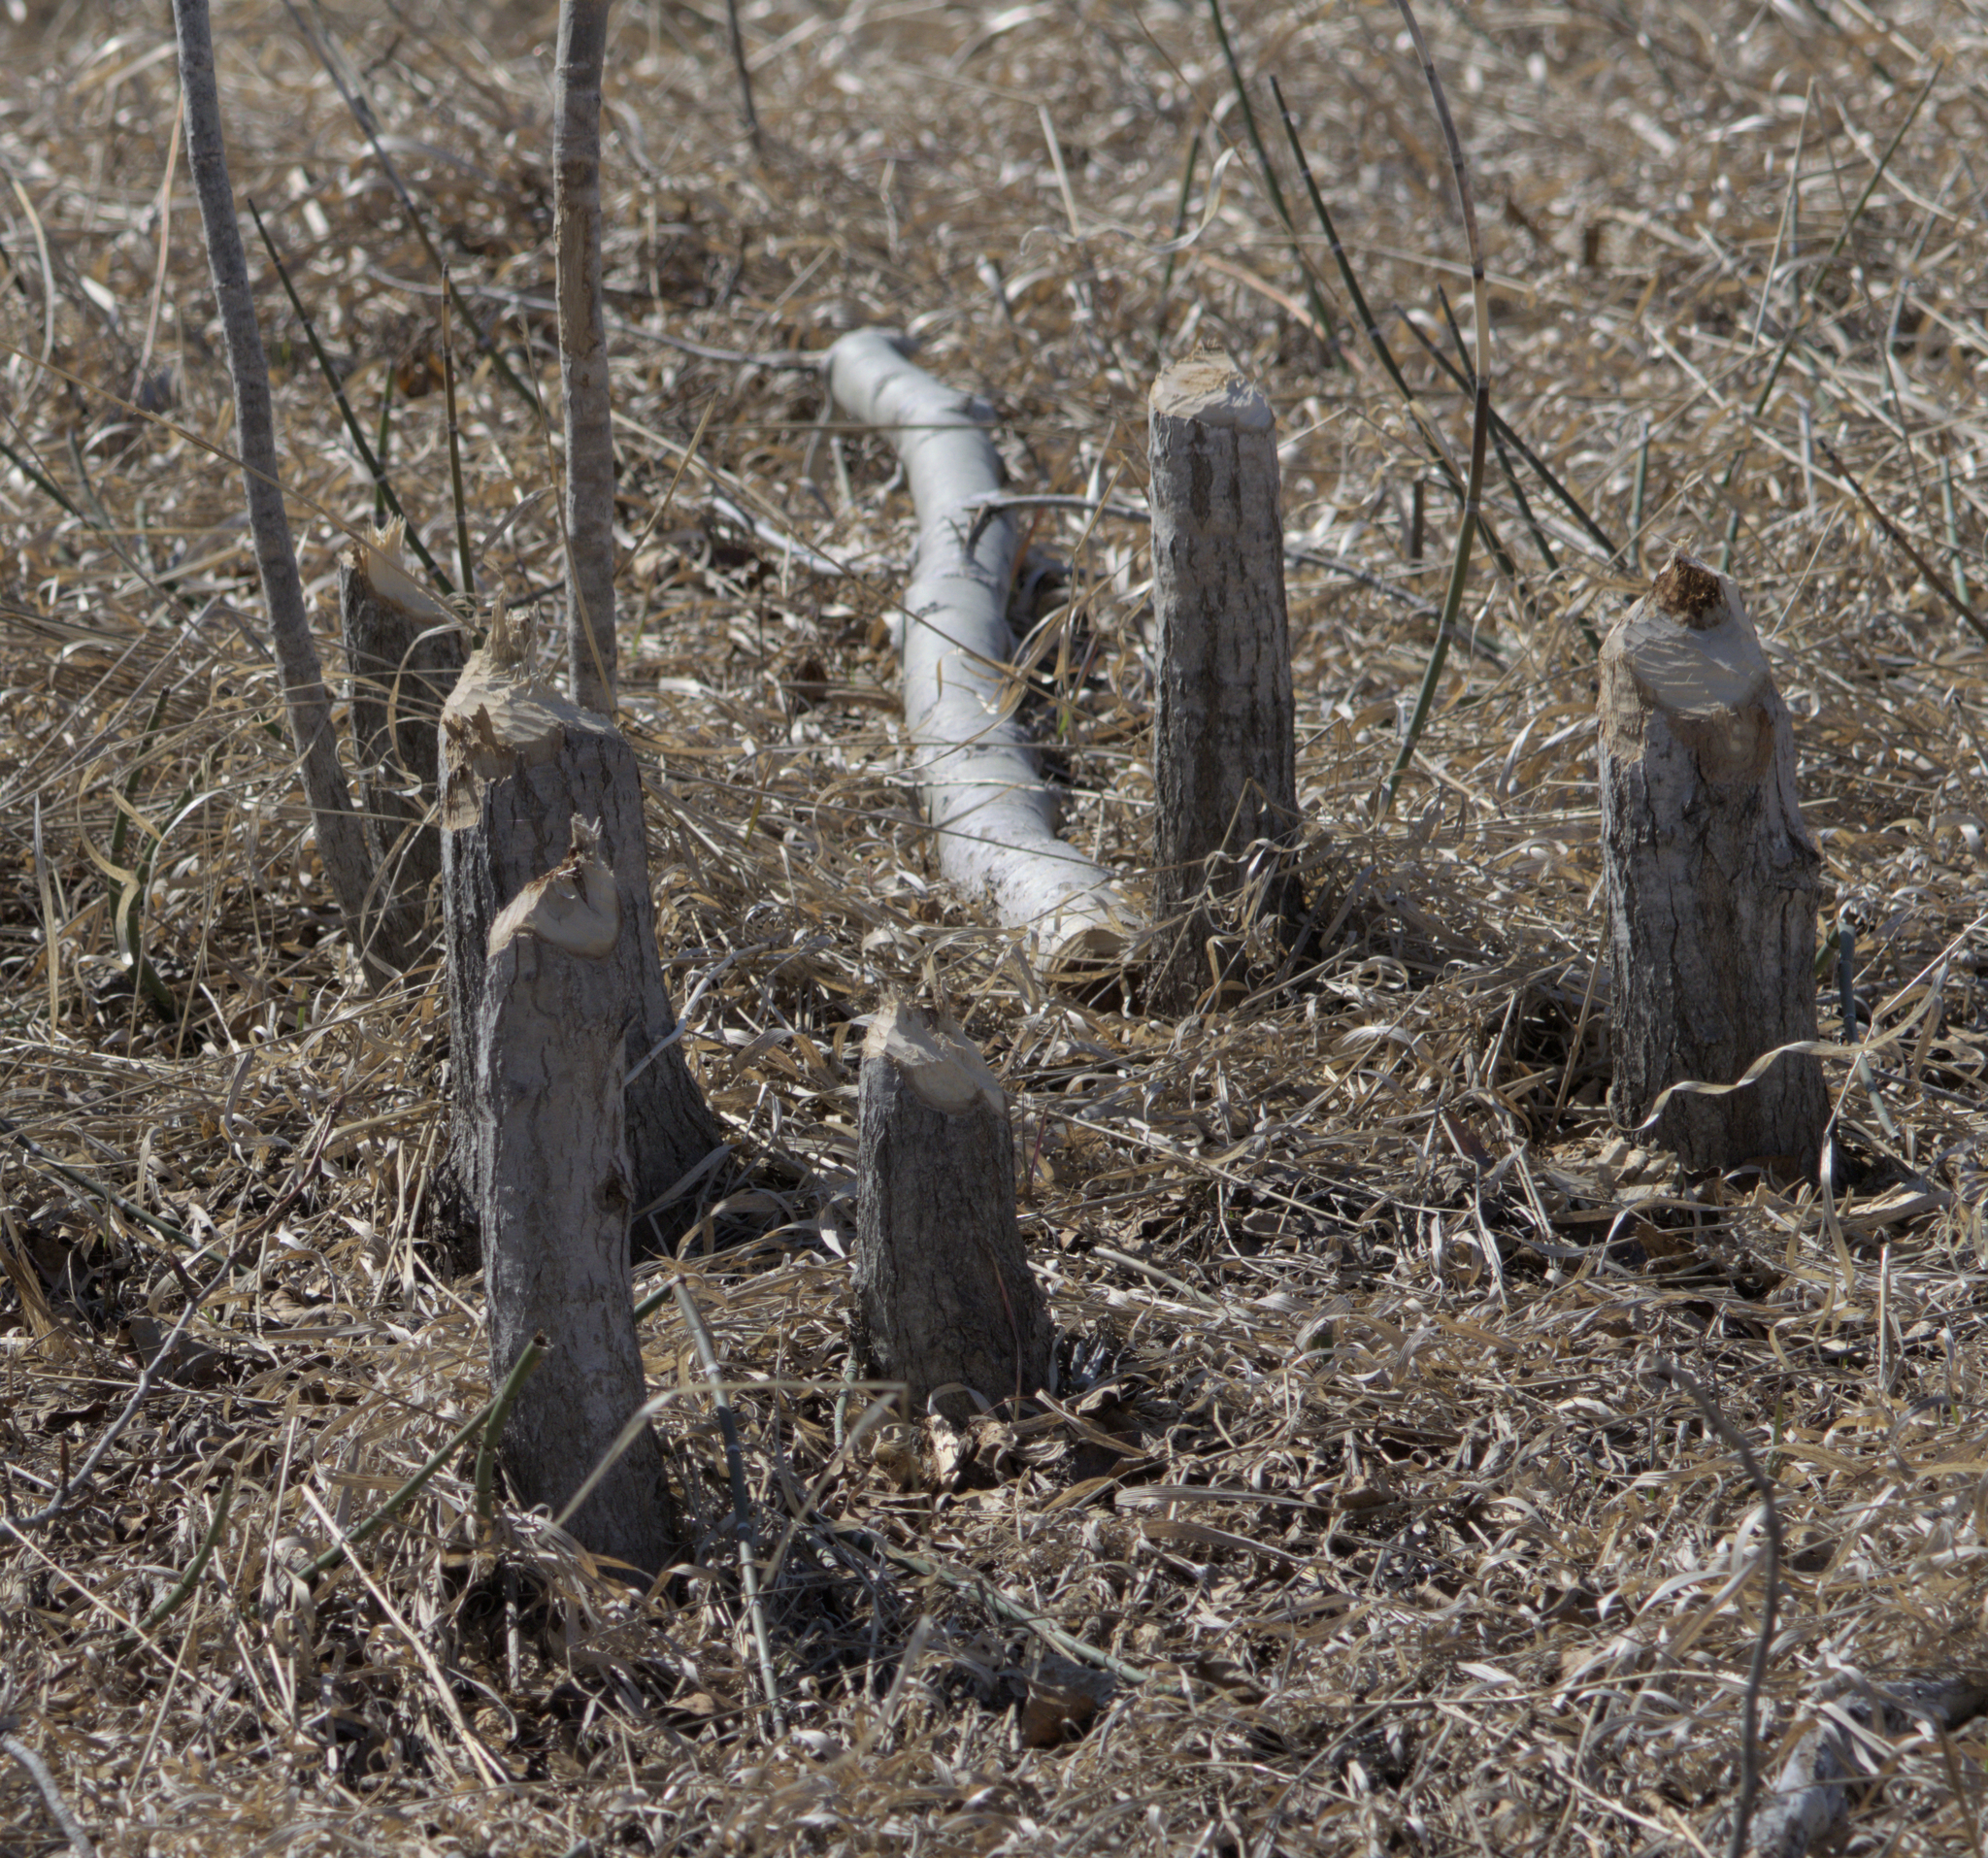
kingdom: Animalia
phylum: Chordata
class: Mammalia
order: Rodentia
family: Castoridae
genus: Castor
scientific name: Castor canadensis
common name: American beaver
